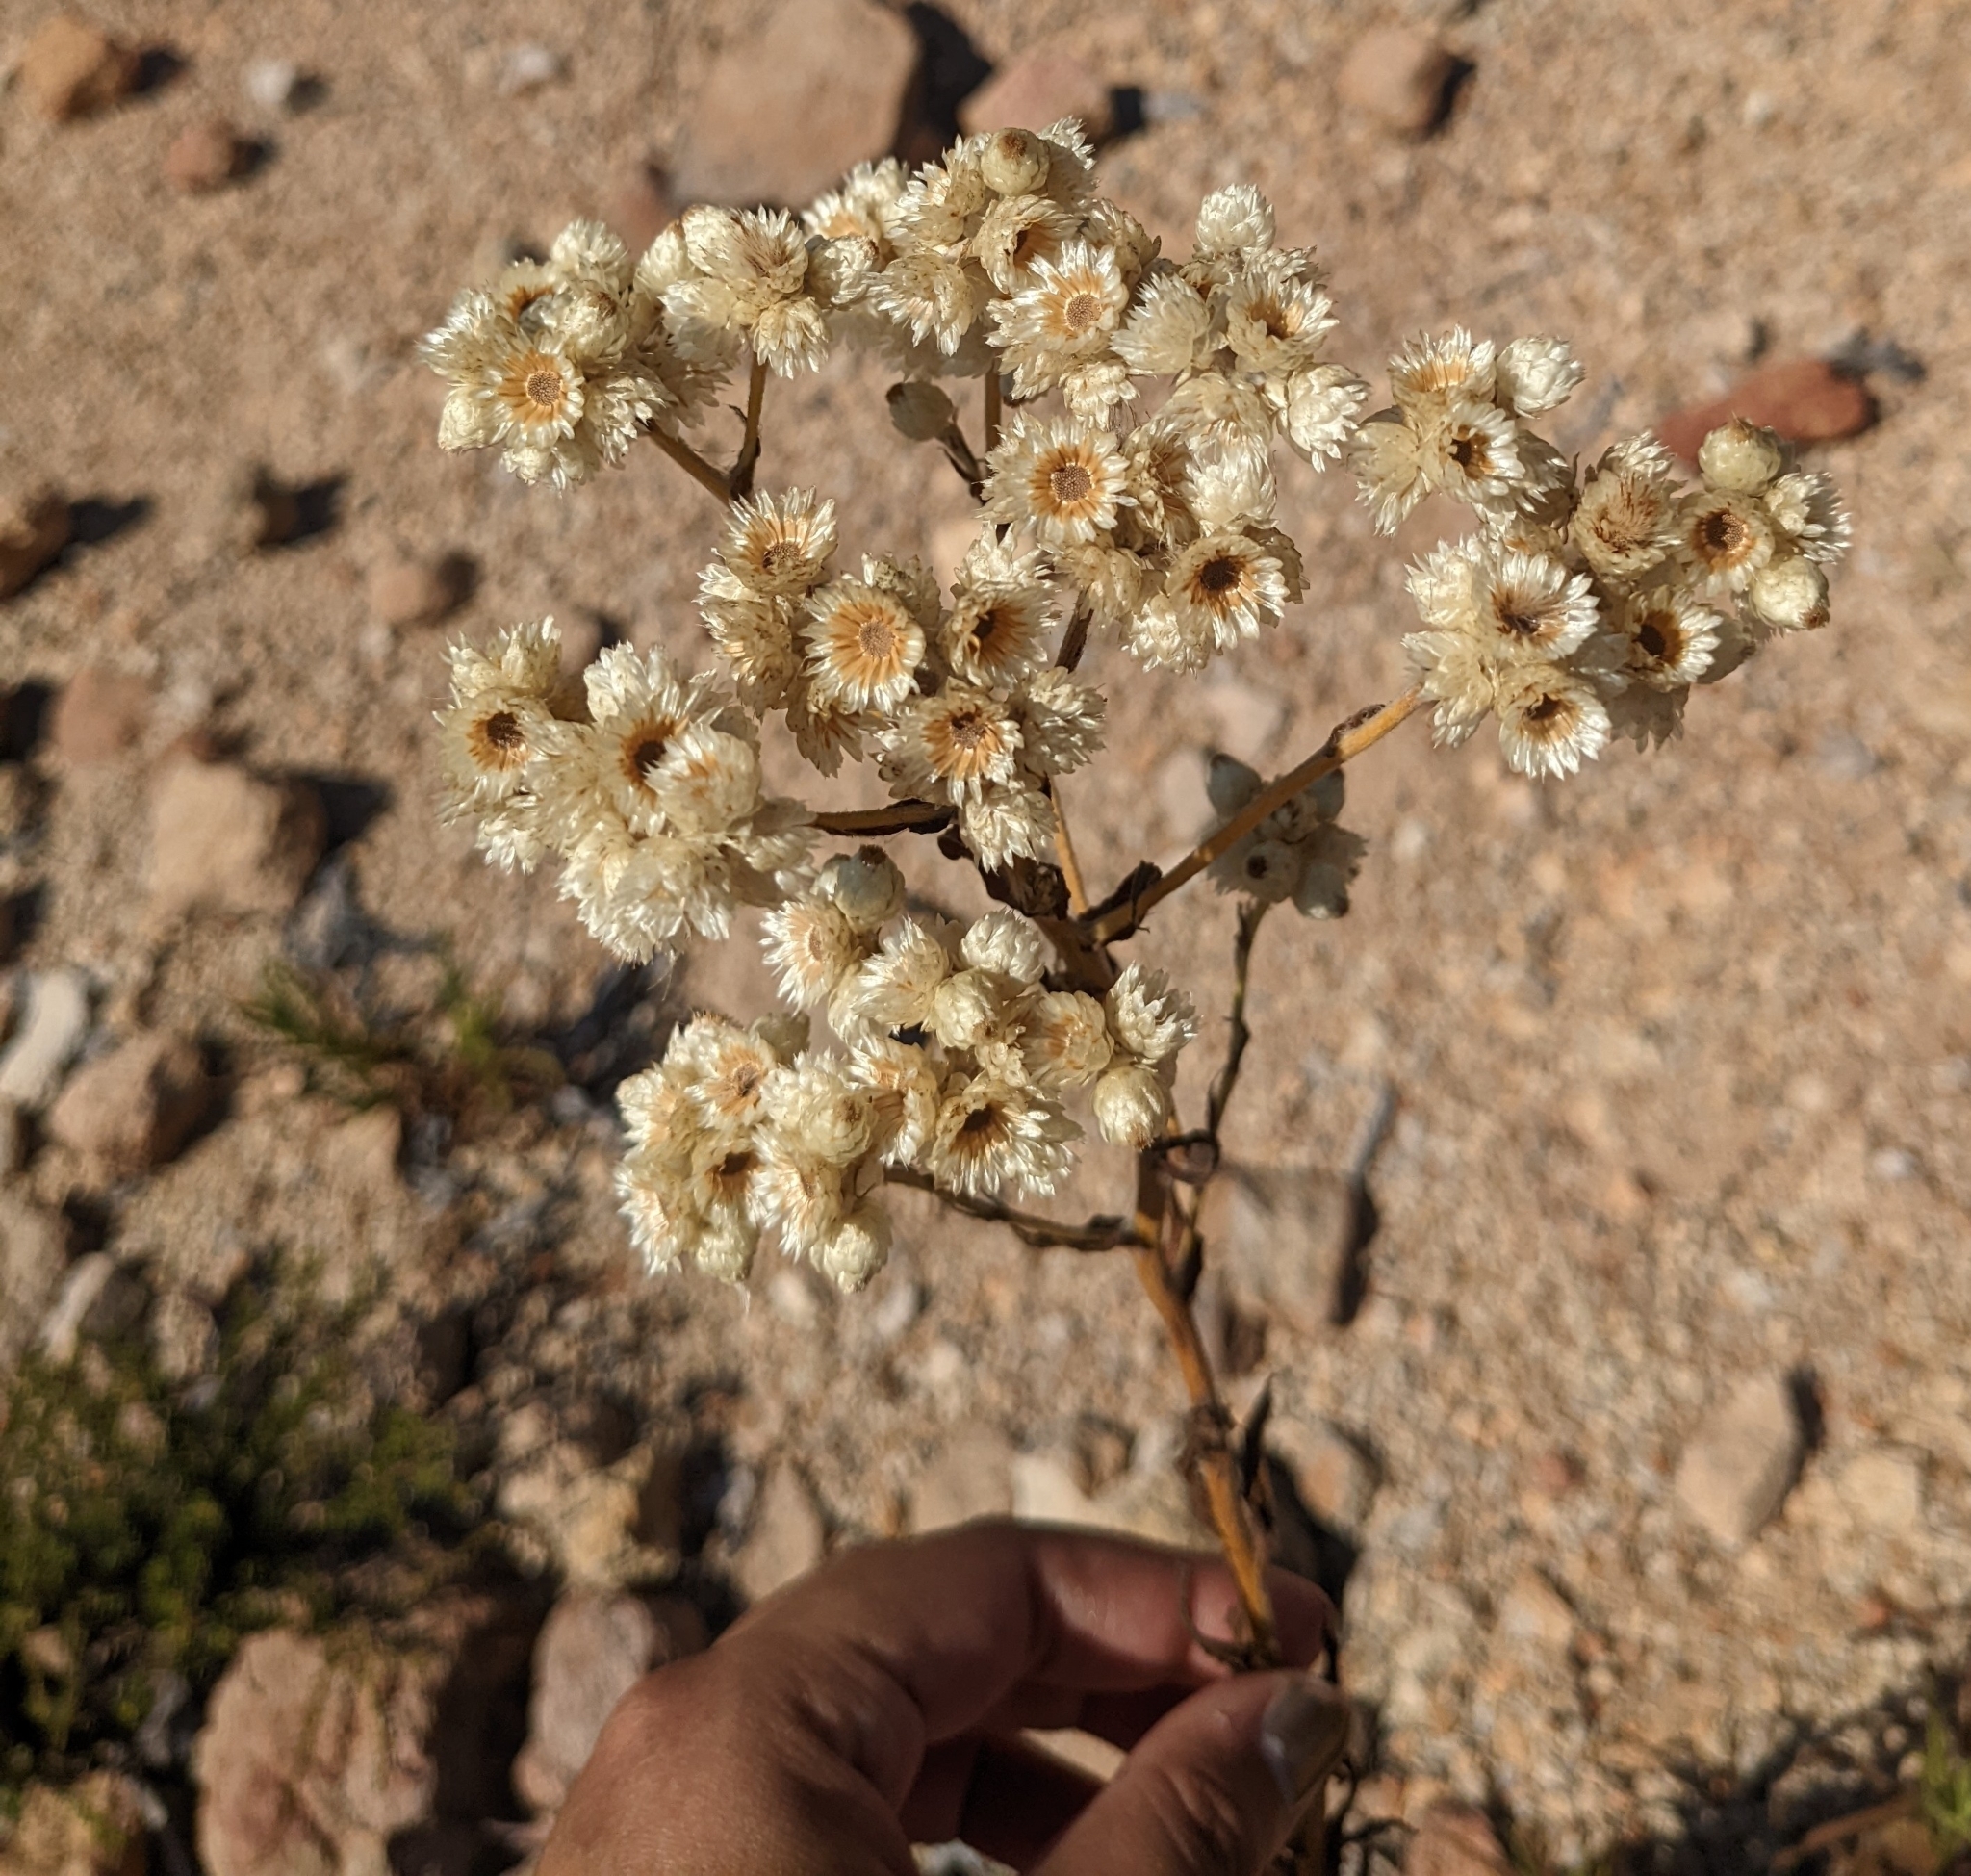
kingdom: Plantae
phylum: Tracheophyta
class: Magnoliopsida
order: Asterales
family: Asteraceae
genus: Pseudognaphalium
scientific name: Pseudognaphalium californicum
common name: California rabbit-tobacco
